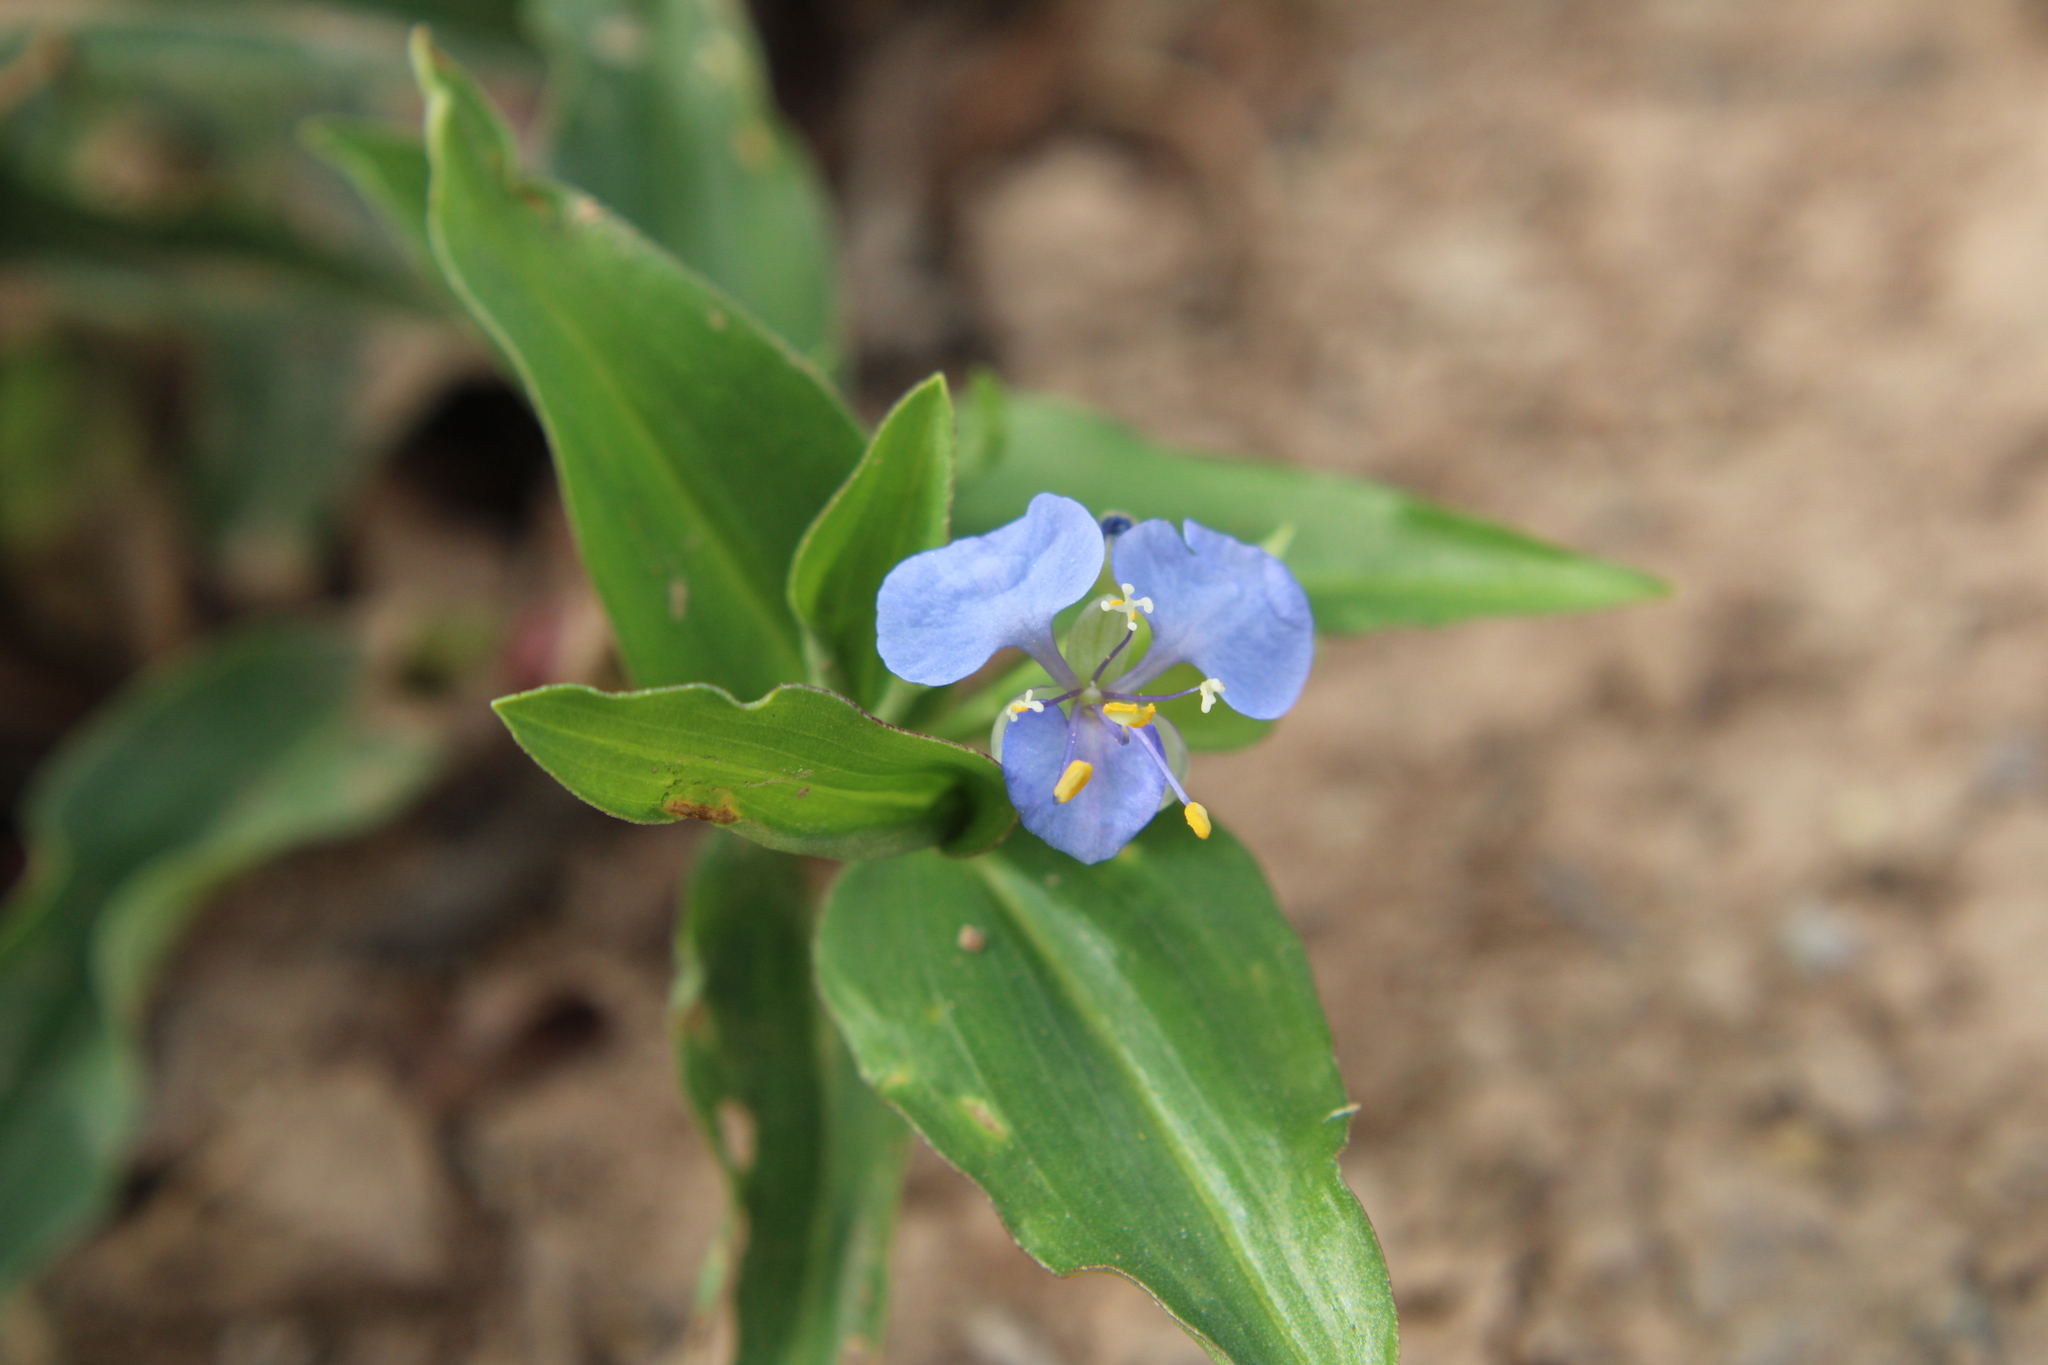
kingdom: Plantae
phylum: Tracheophyta
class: Liliopsida
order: Commelinales
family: Commelinaceae
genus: Commelina
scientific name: Commelina diffusa
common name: Climbing dayflower
